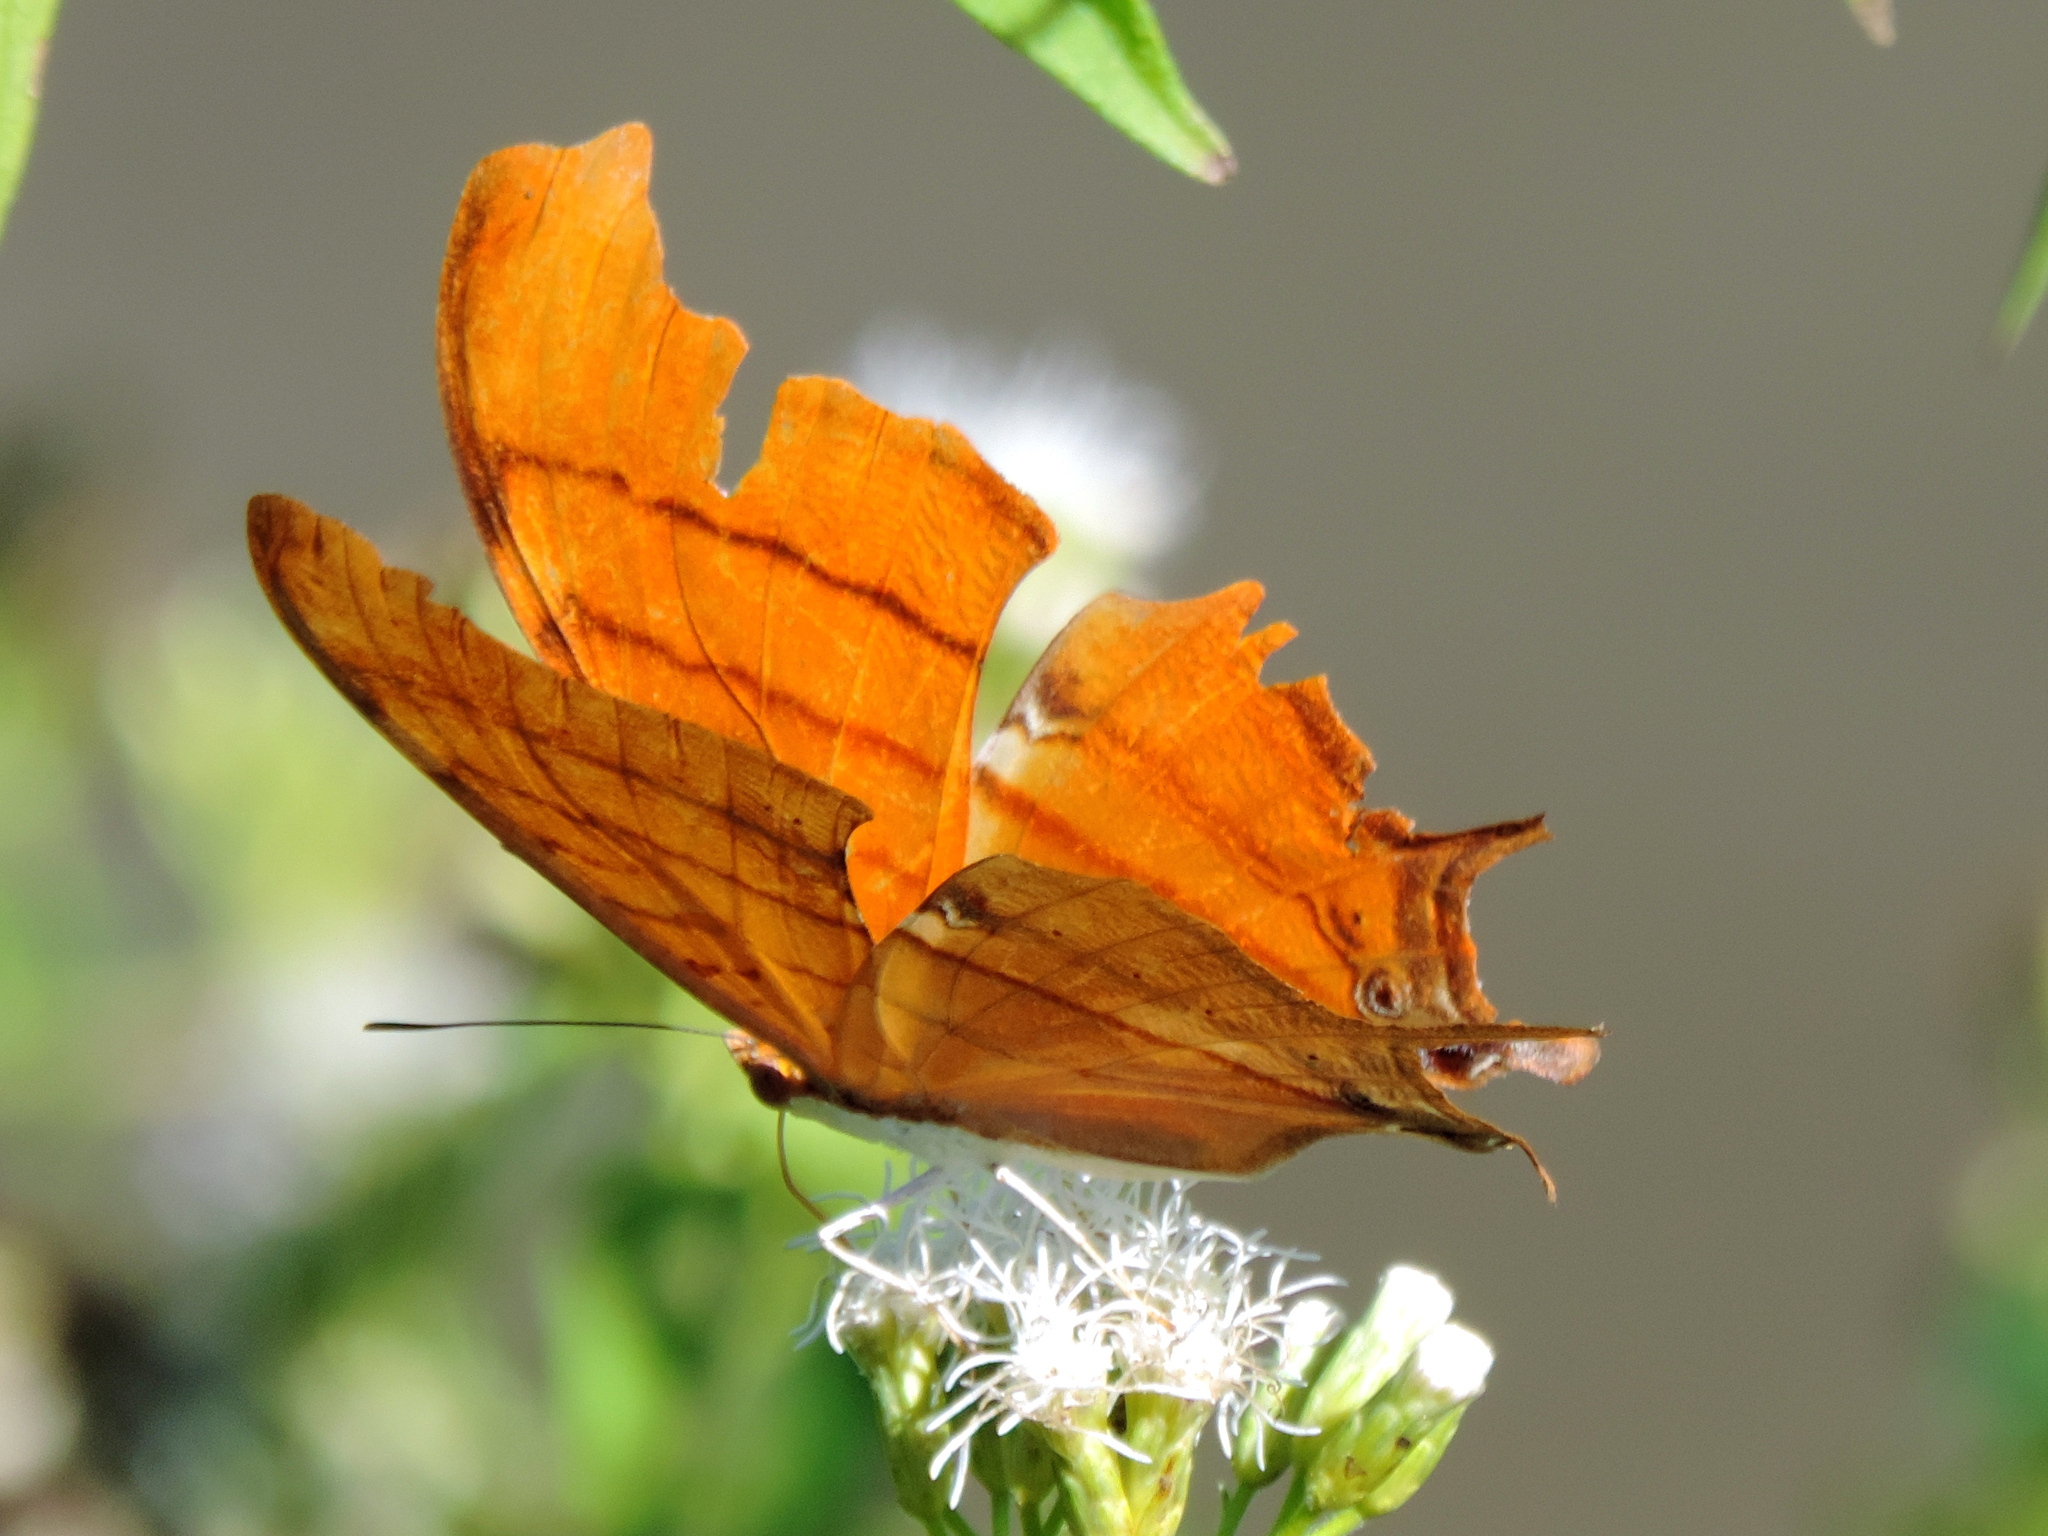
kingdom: Animalia
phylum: Arthropoda
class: Insecta
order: Lepidoptera
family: Nymphalidae
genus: Marpesia
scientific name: Marpesia petreus
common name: Red dagger wing
